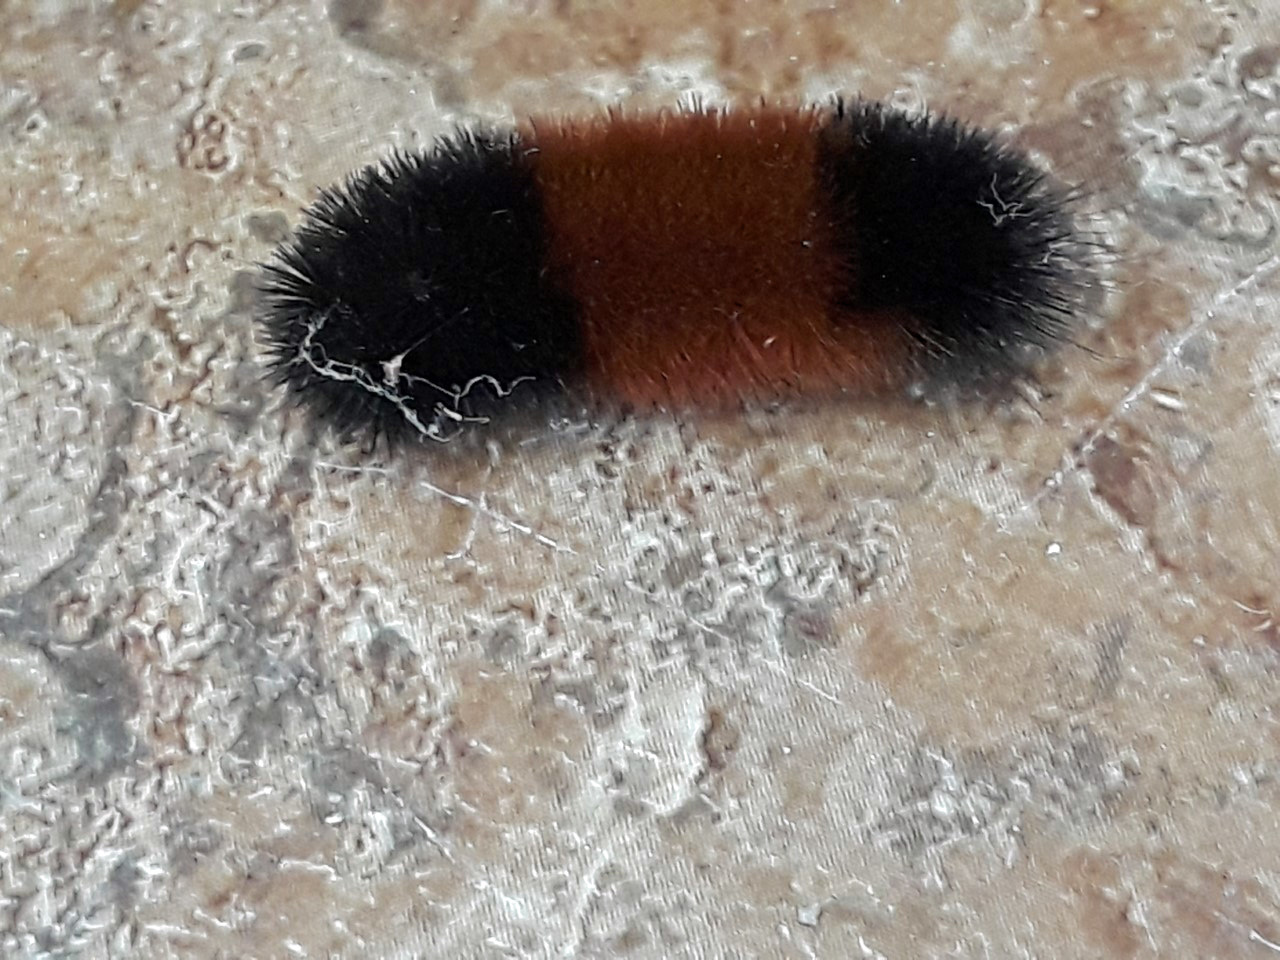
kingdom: Animalia
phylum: Arthropoda
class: Insecta
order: Lepidoptera
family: Erebidae
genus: Pyrrharctia
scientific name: Pyrrharctia isabella
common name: Isabella tiger moth
